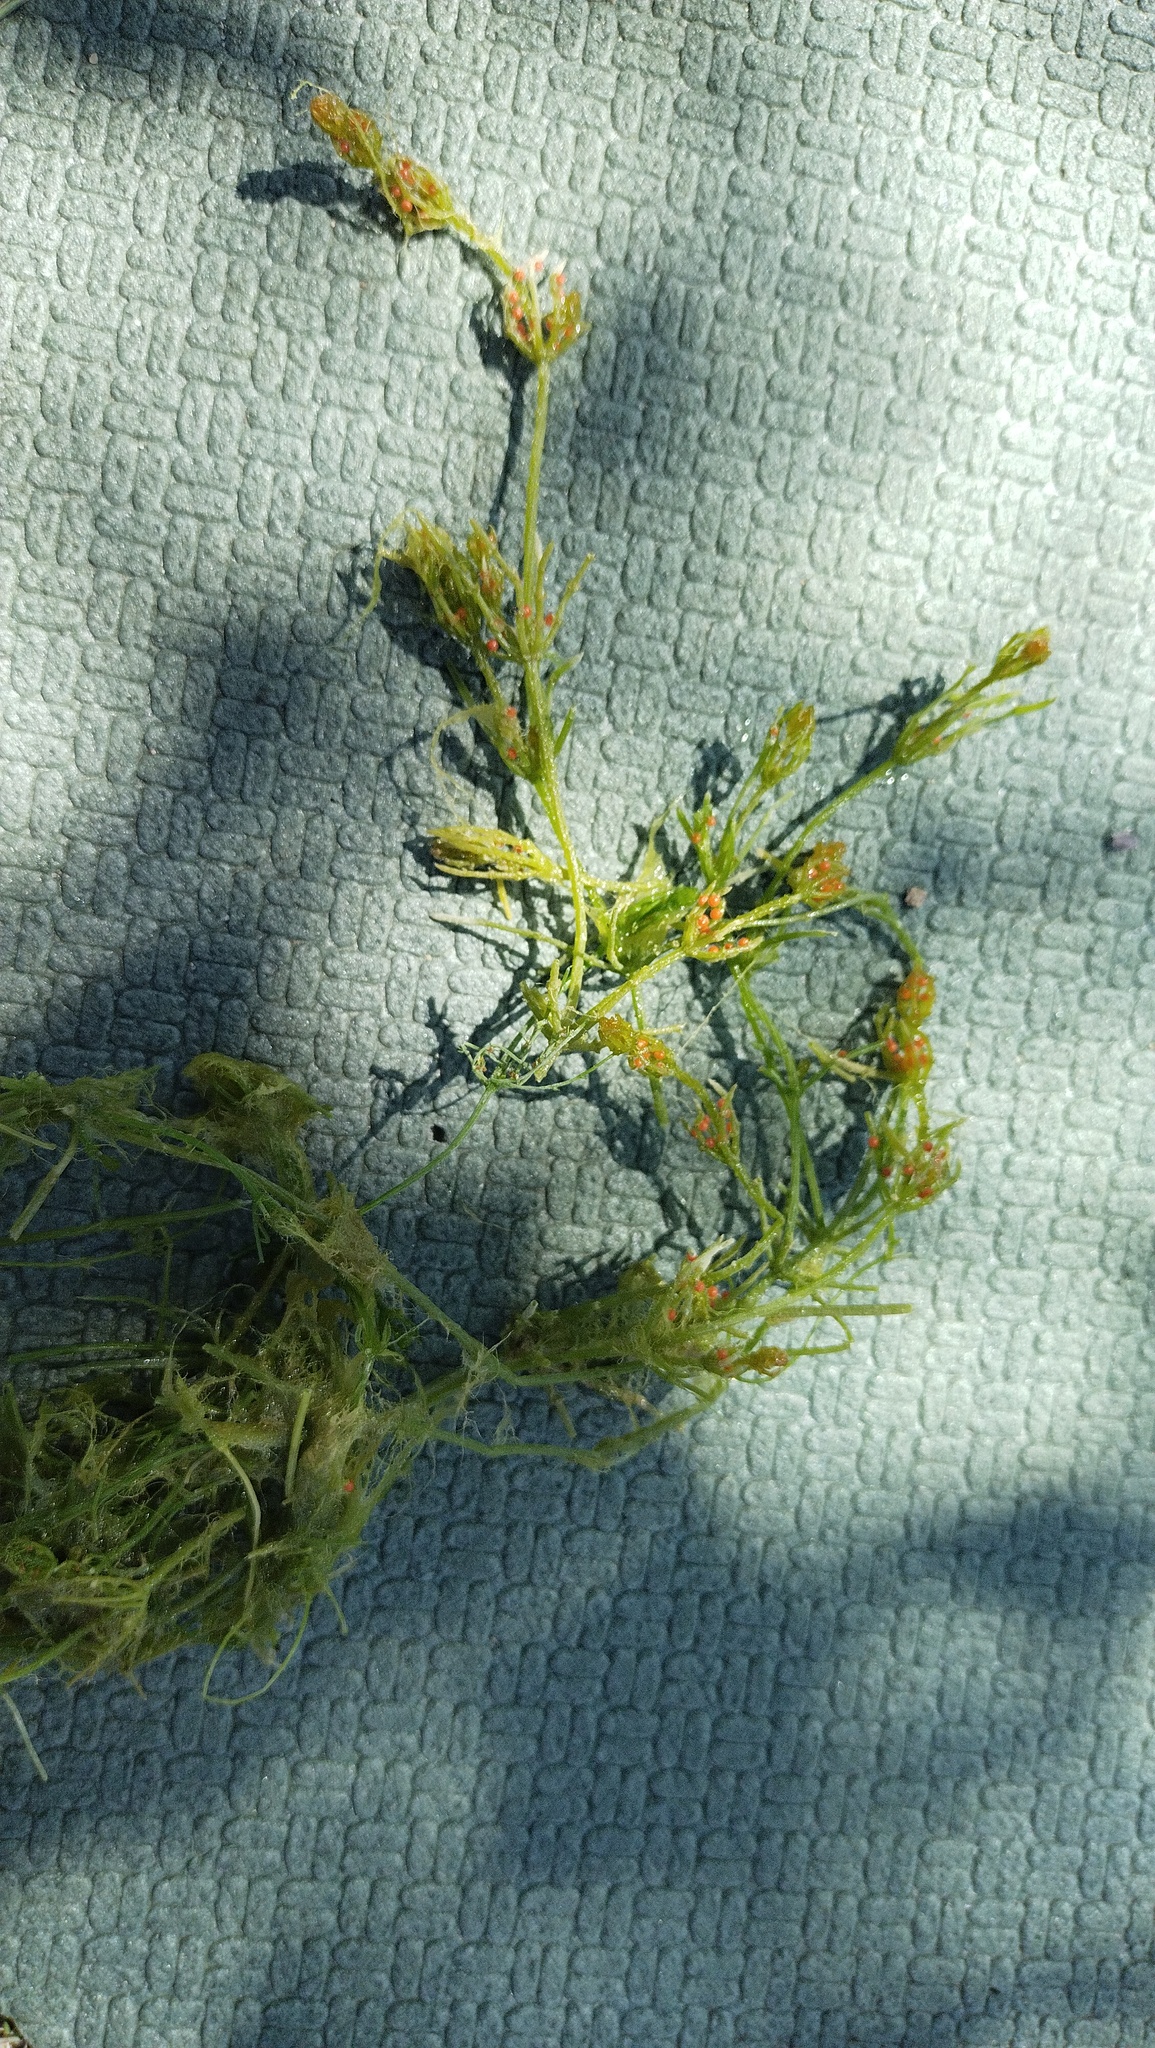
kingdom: Plantae
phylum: Charophyta
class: Charophyceae
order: Charales
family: Characeae
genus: Chara
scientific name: Chara tomentosa
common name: Coral stonewort
